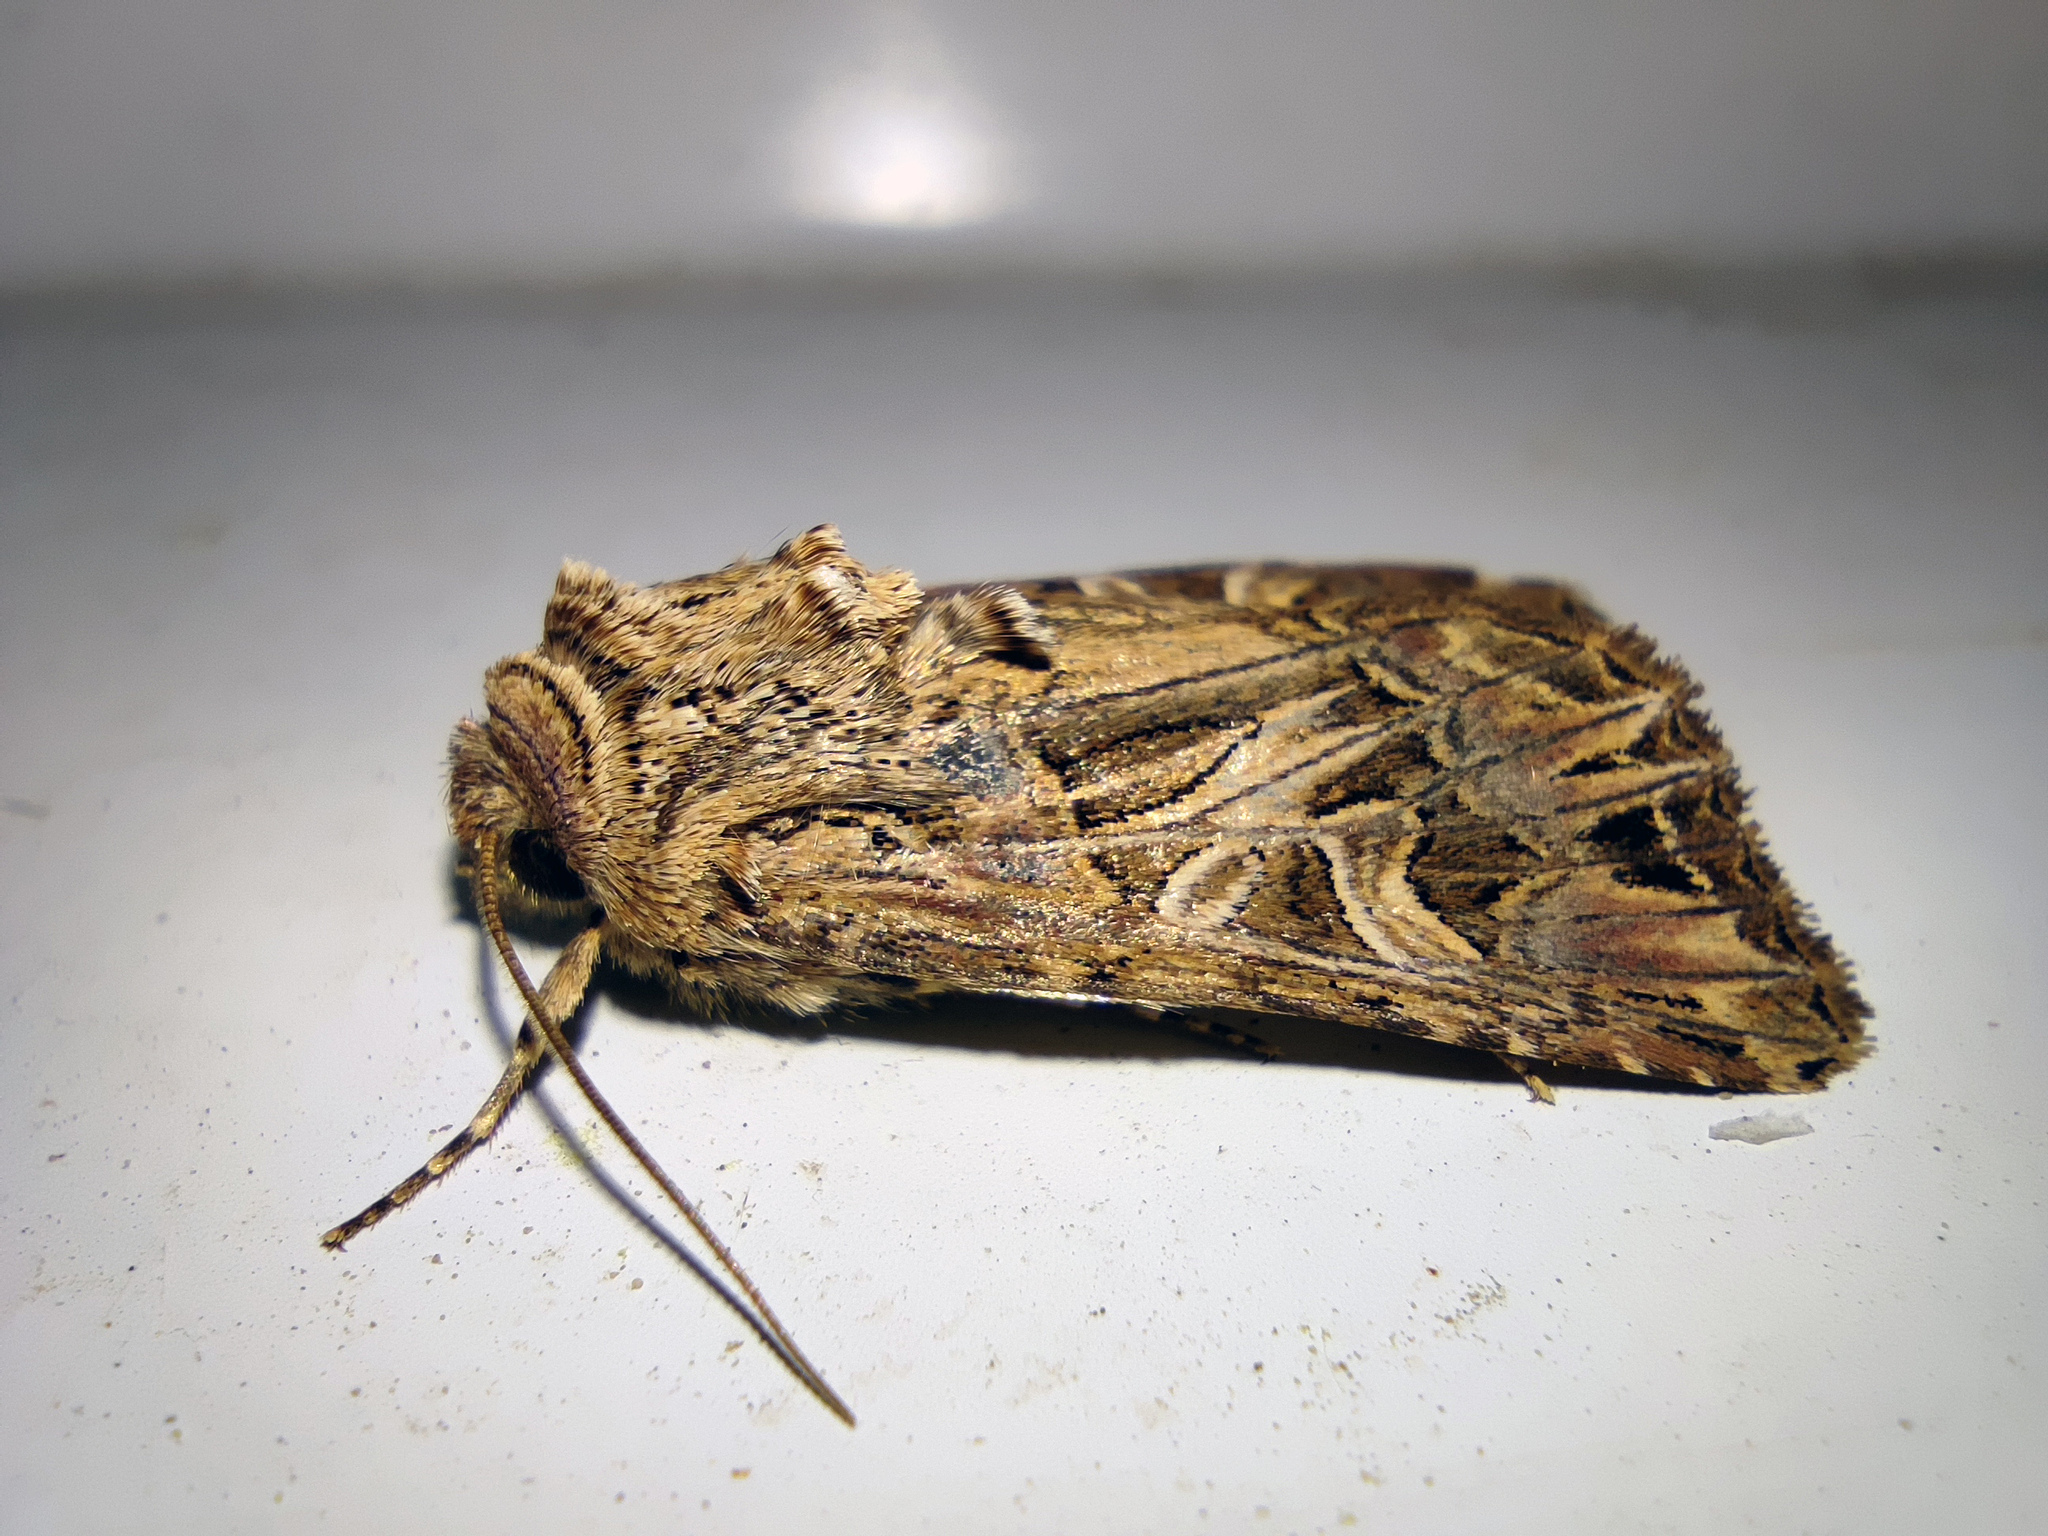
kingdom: Animalia
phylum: Arthropoda
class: Insecta
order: Lepidoptera
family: Noctuidae
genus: Anarta
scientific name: Anarta dianthi
